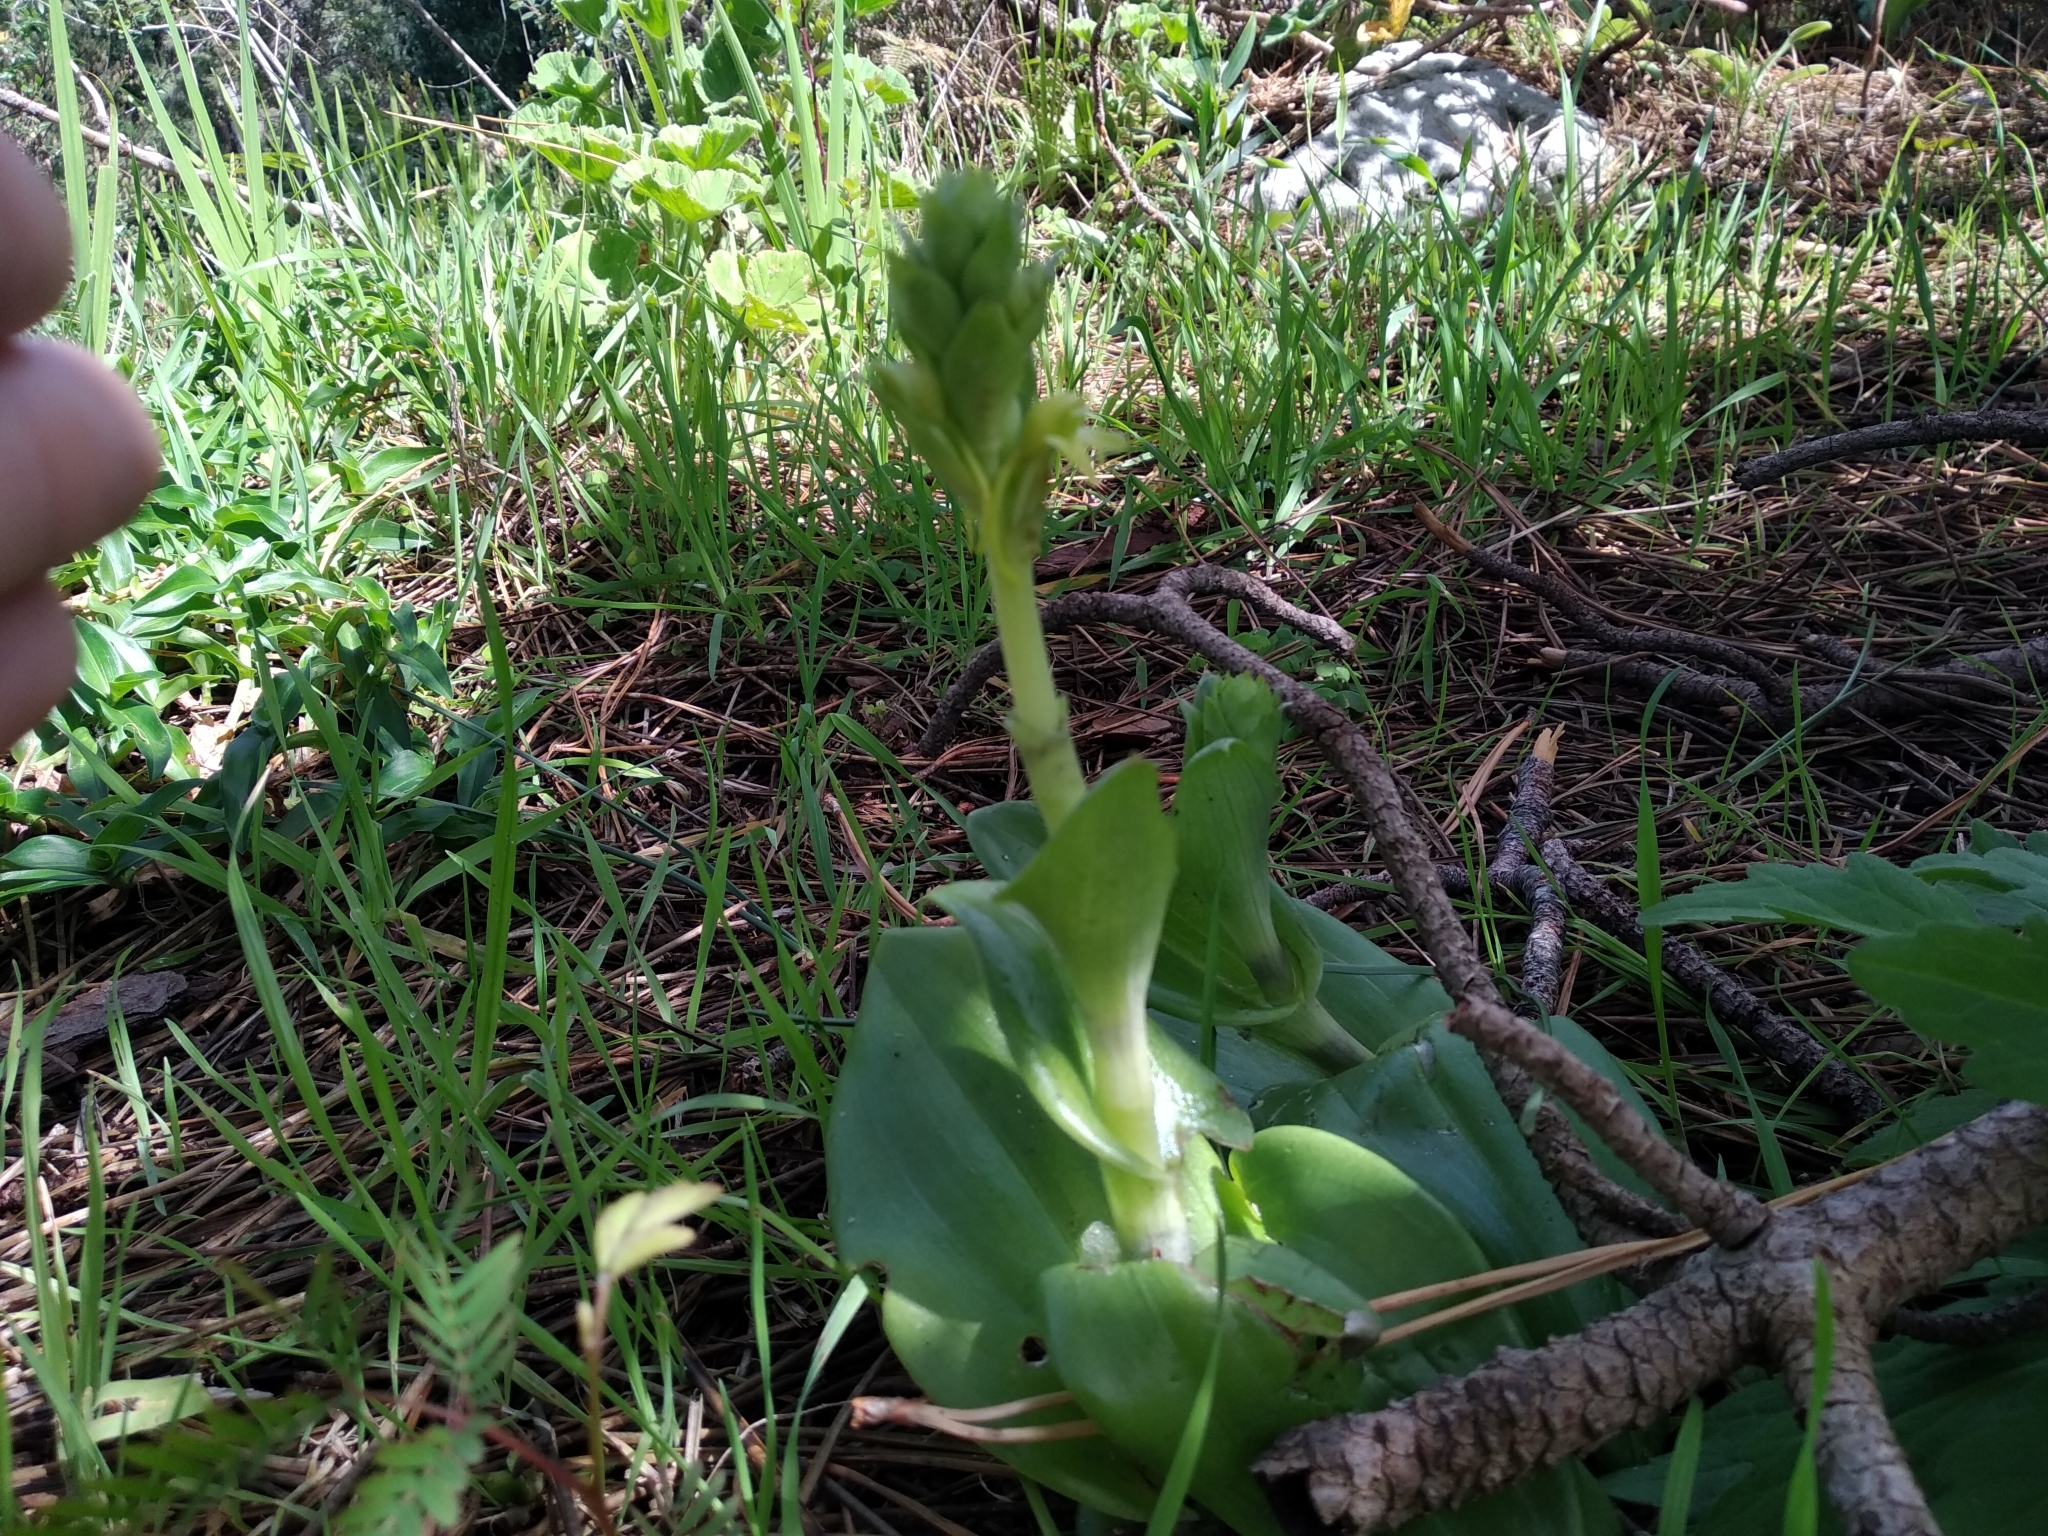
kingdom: Plantae
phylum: Tracheophyta
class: Liliopsida
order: Asparagales
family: Orchidaceae
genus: Satyrium
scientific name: Satyrium odorum
